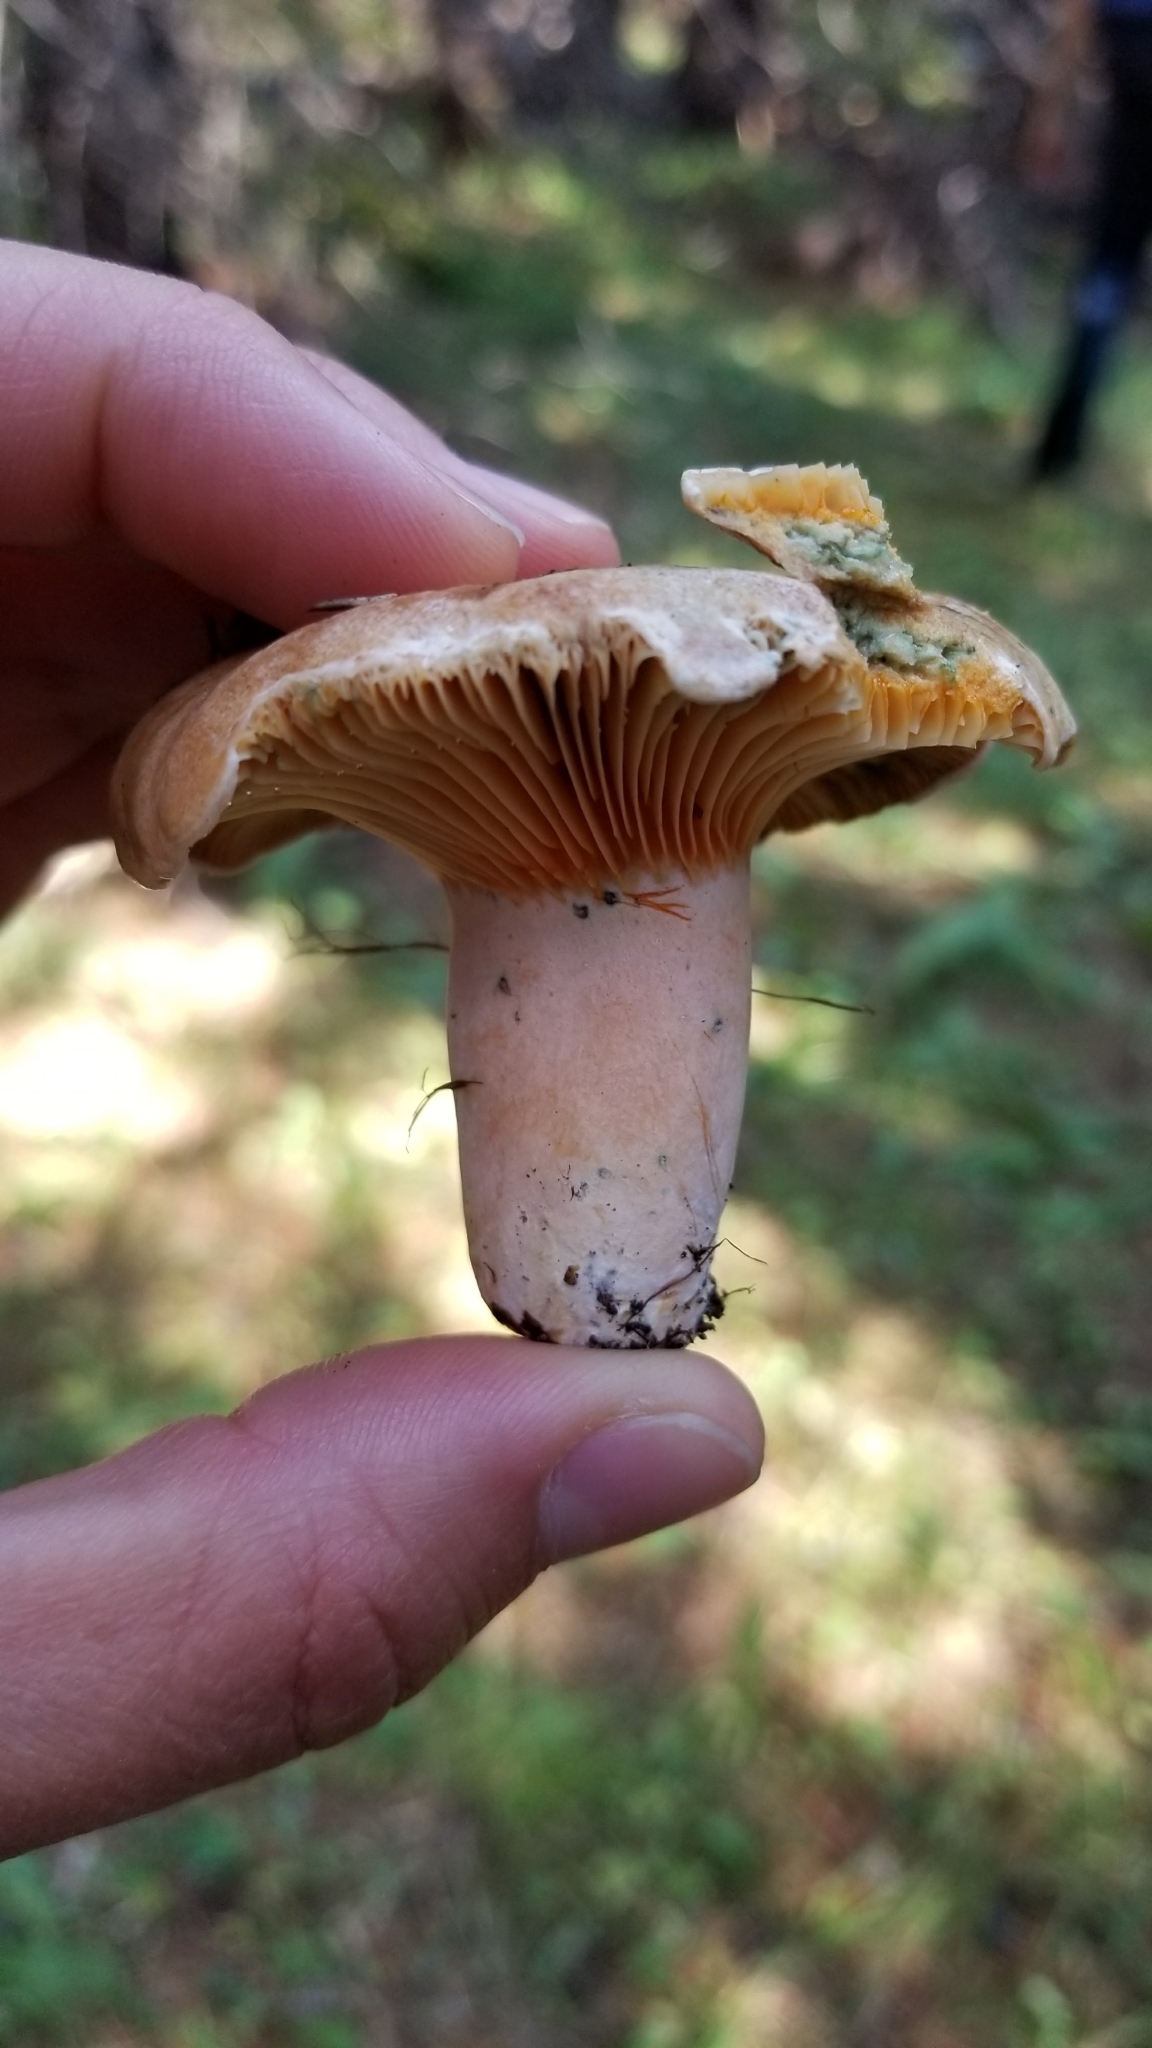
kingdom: Fungi
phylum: Basidiomycota
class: Agaricomycetes
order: Russulales
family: Russulaceae
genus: Lactarius
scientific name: Lactarius deliciosus
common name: Saffron milk-cap
